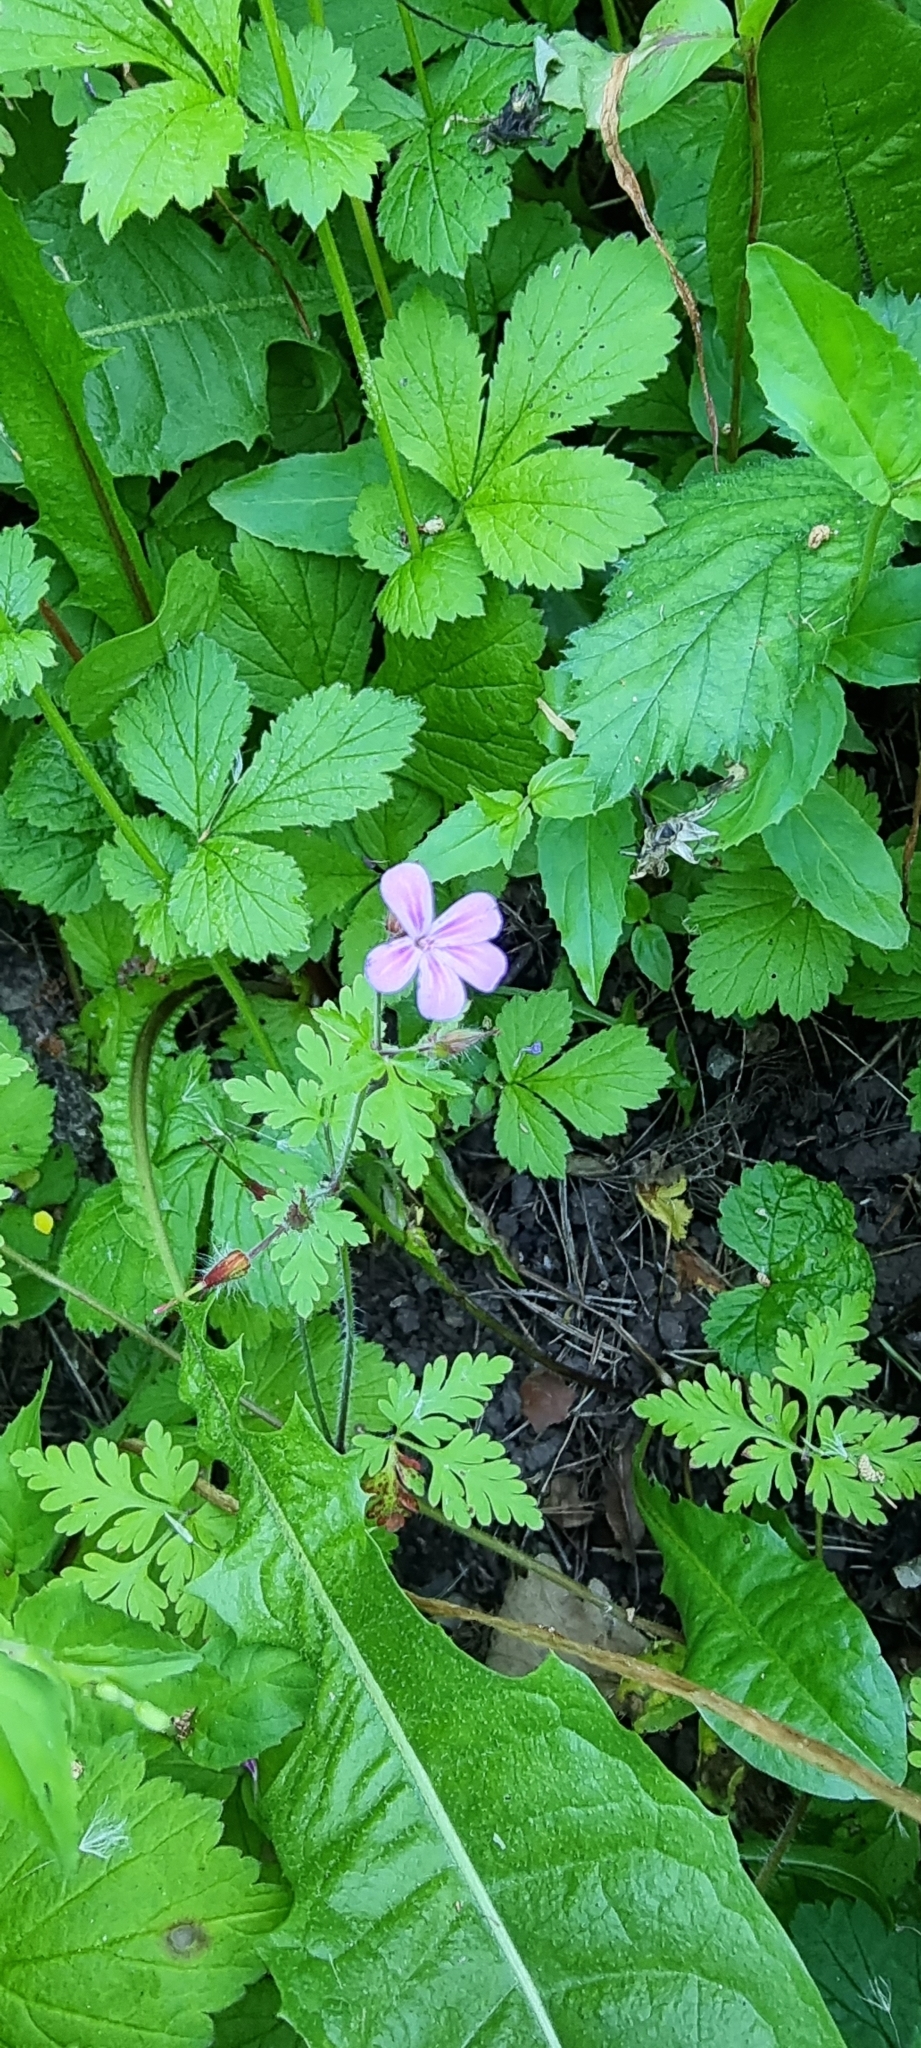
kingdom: Plantae
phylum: Tracheophyta
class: Magnoliopsida
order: Geraniales
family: Geraniaceae
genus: Geranium
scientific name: Geranium robertianum
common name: Herb-robert
